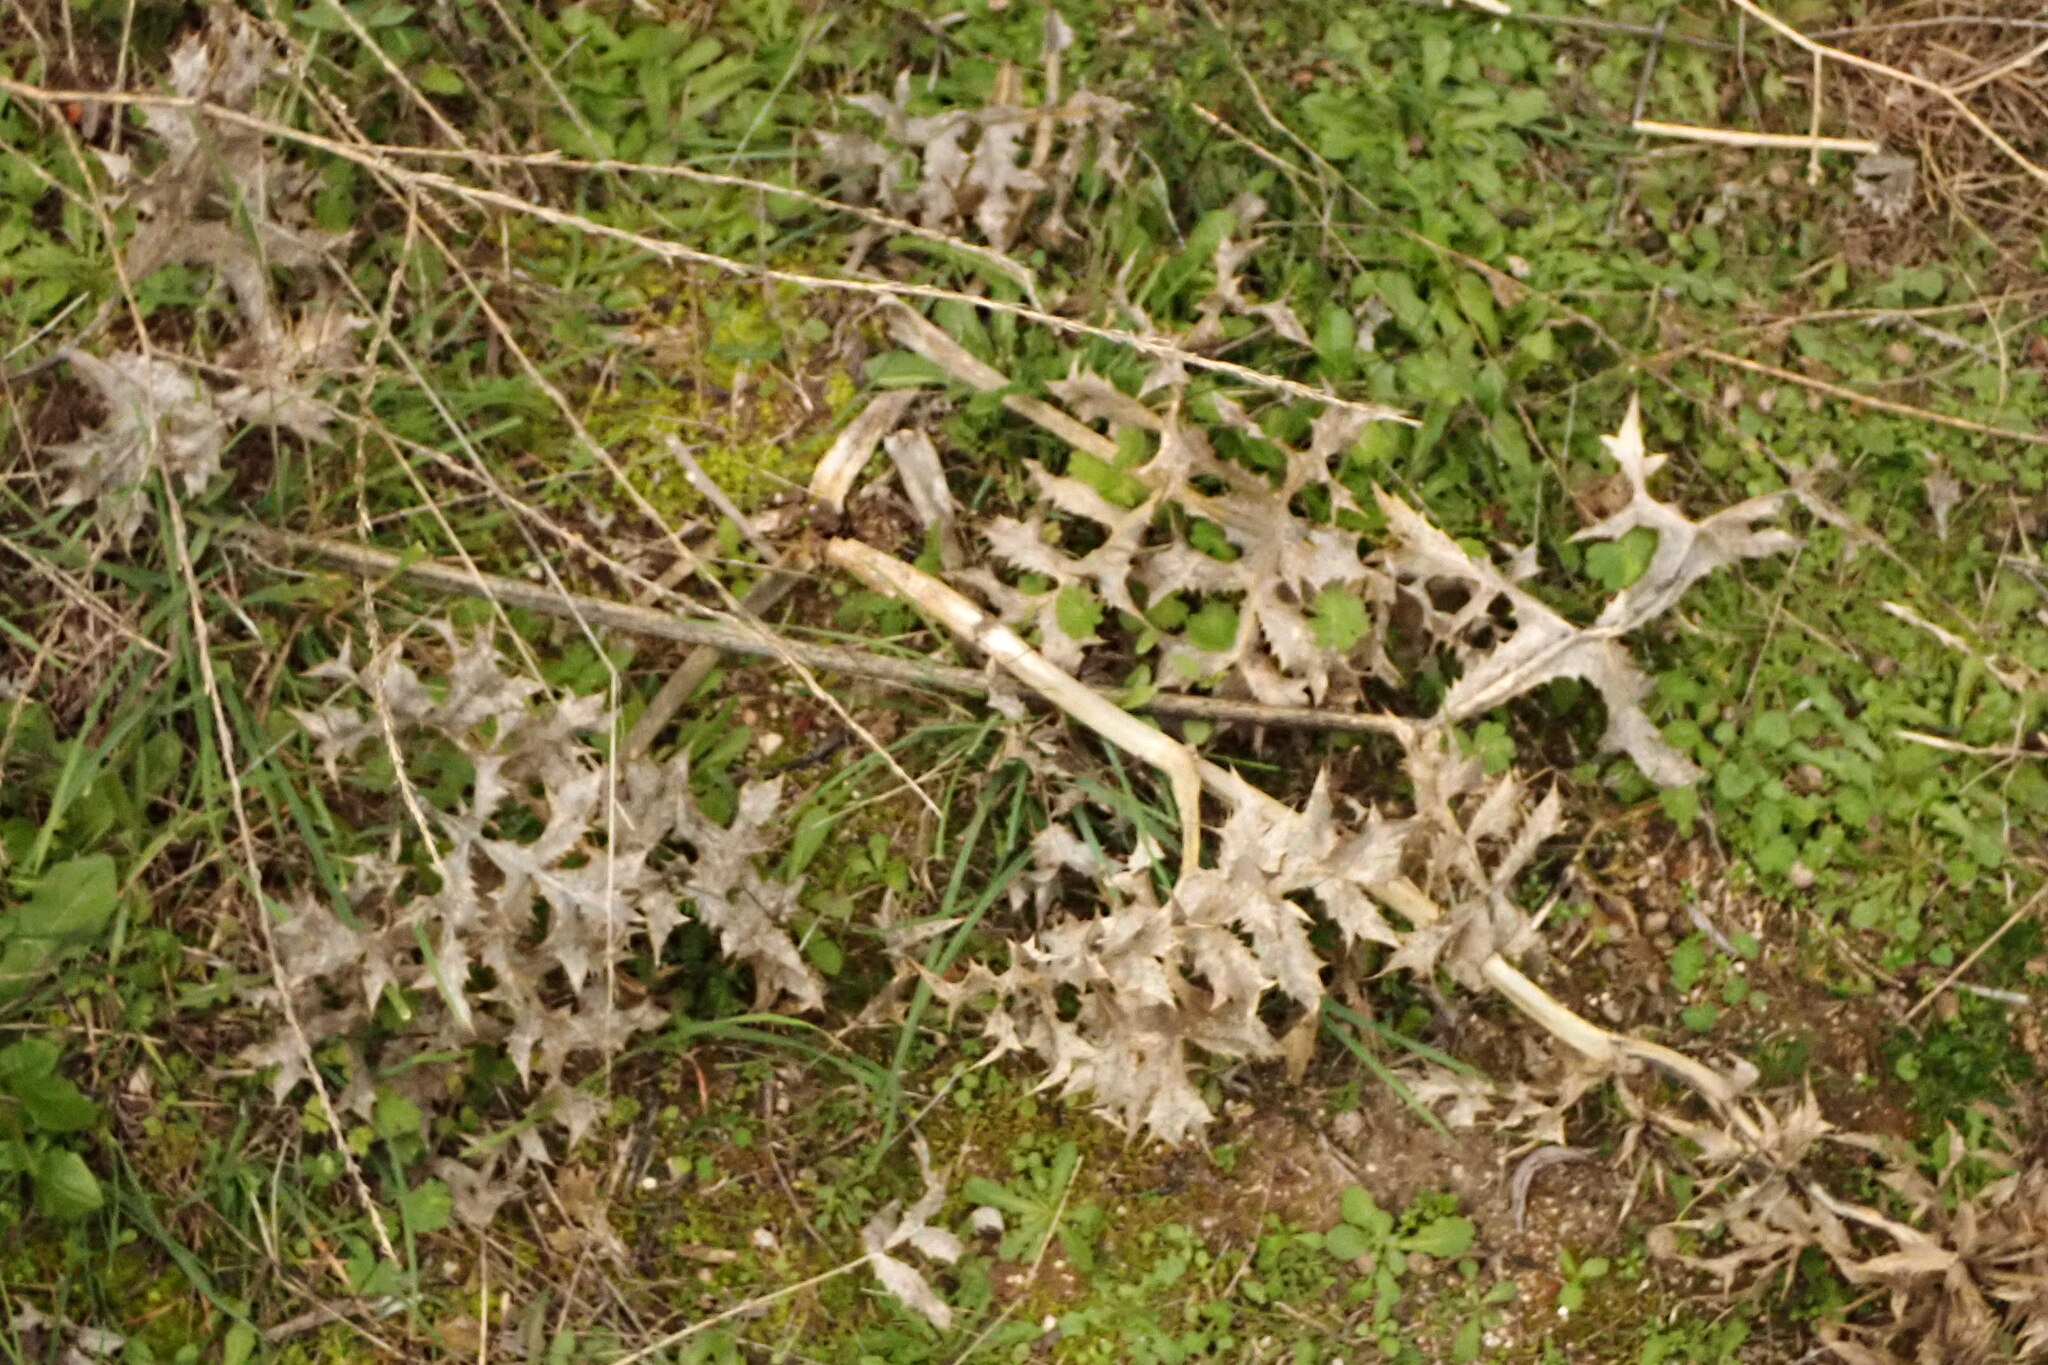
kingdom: Plantae
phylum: Tracheophyta
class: Magnoliopsida
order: Apiales
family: Apiaceae
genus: Eryngium
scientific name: Eryngium campestre
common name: Field eryngo
